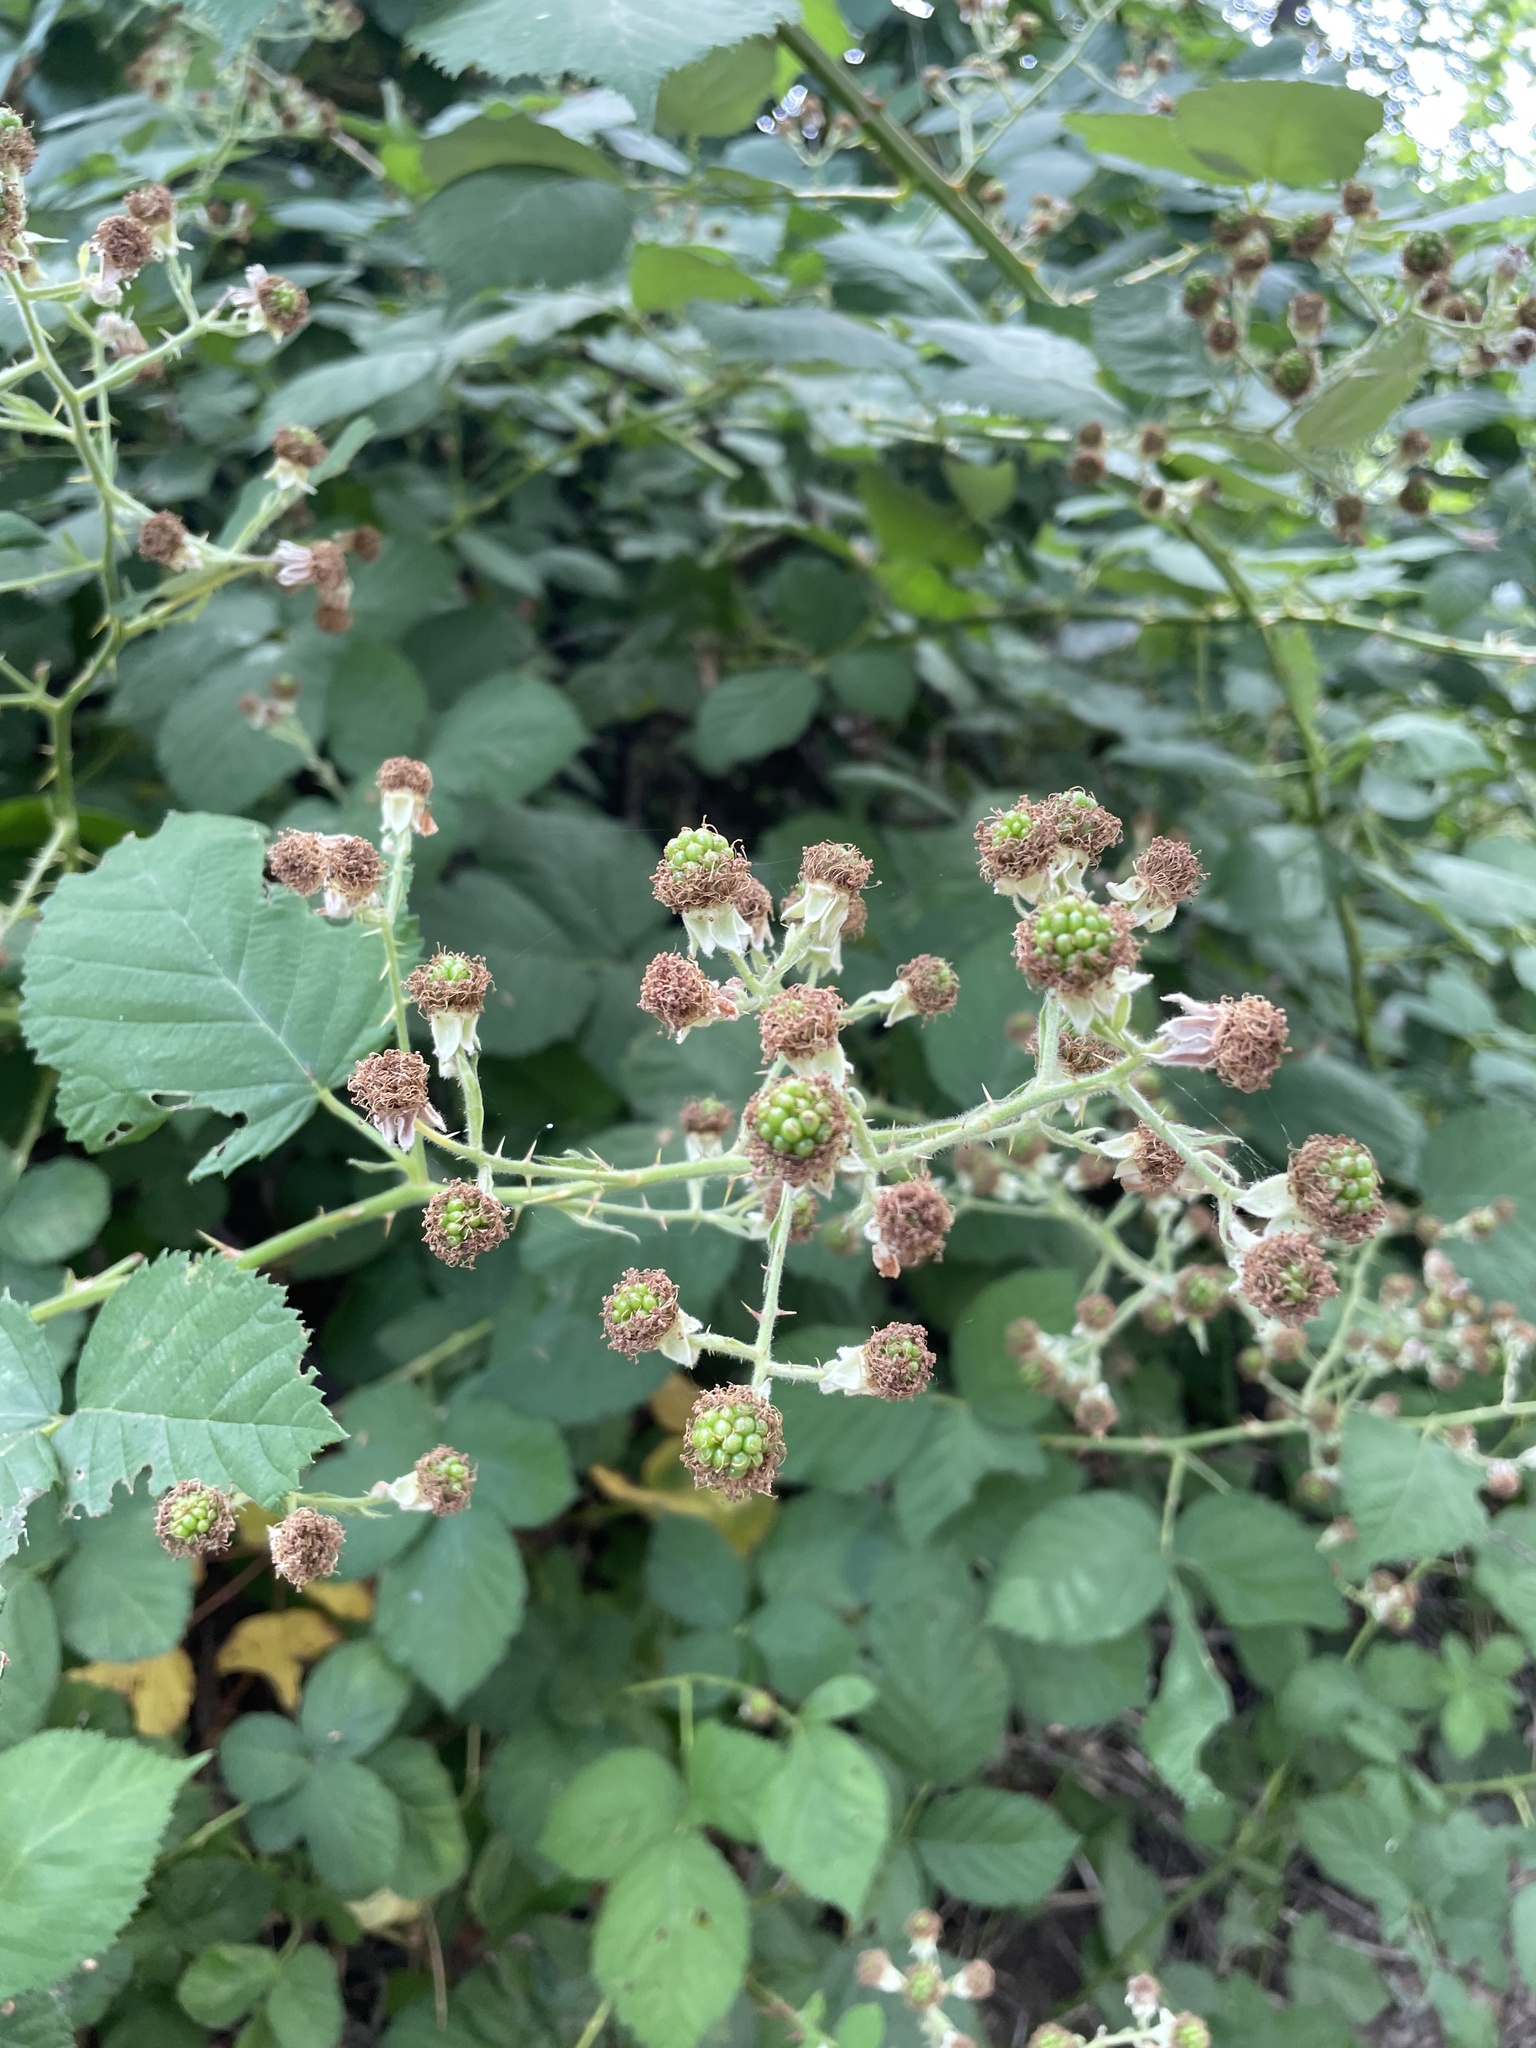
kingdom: Plantae
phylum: Tracheophyta
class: Magnoliopsida
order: Rosales
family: Rosaceae
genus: Rubus
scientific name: Rubus armeniacus
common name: Himalayan blackberry
